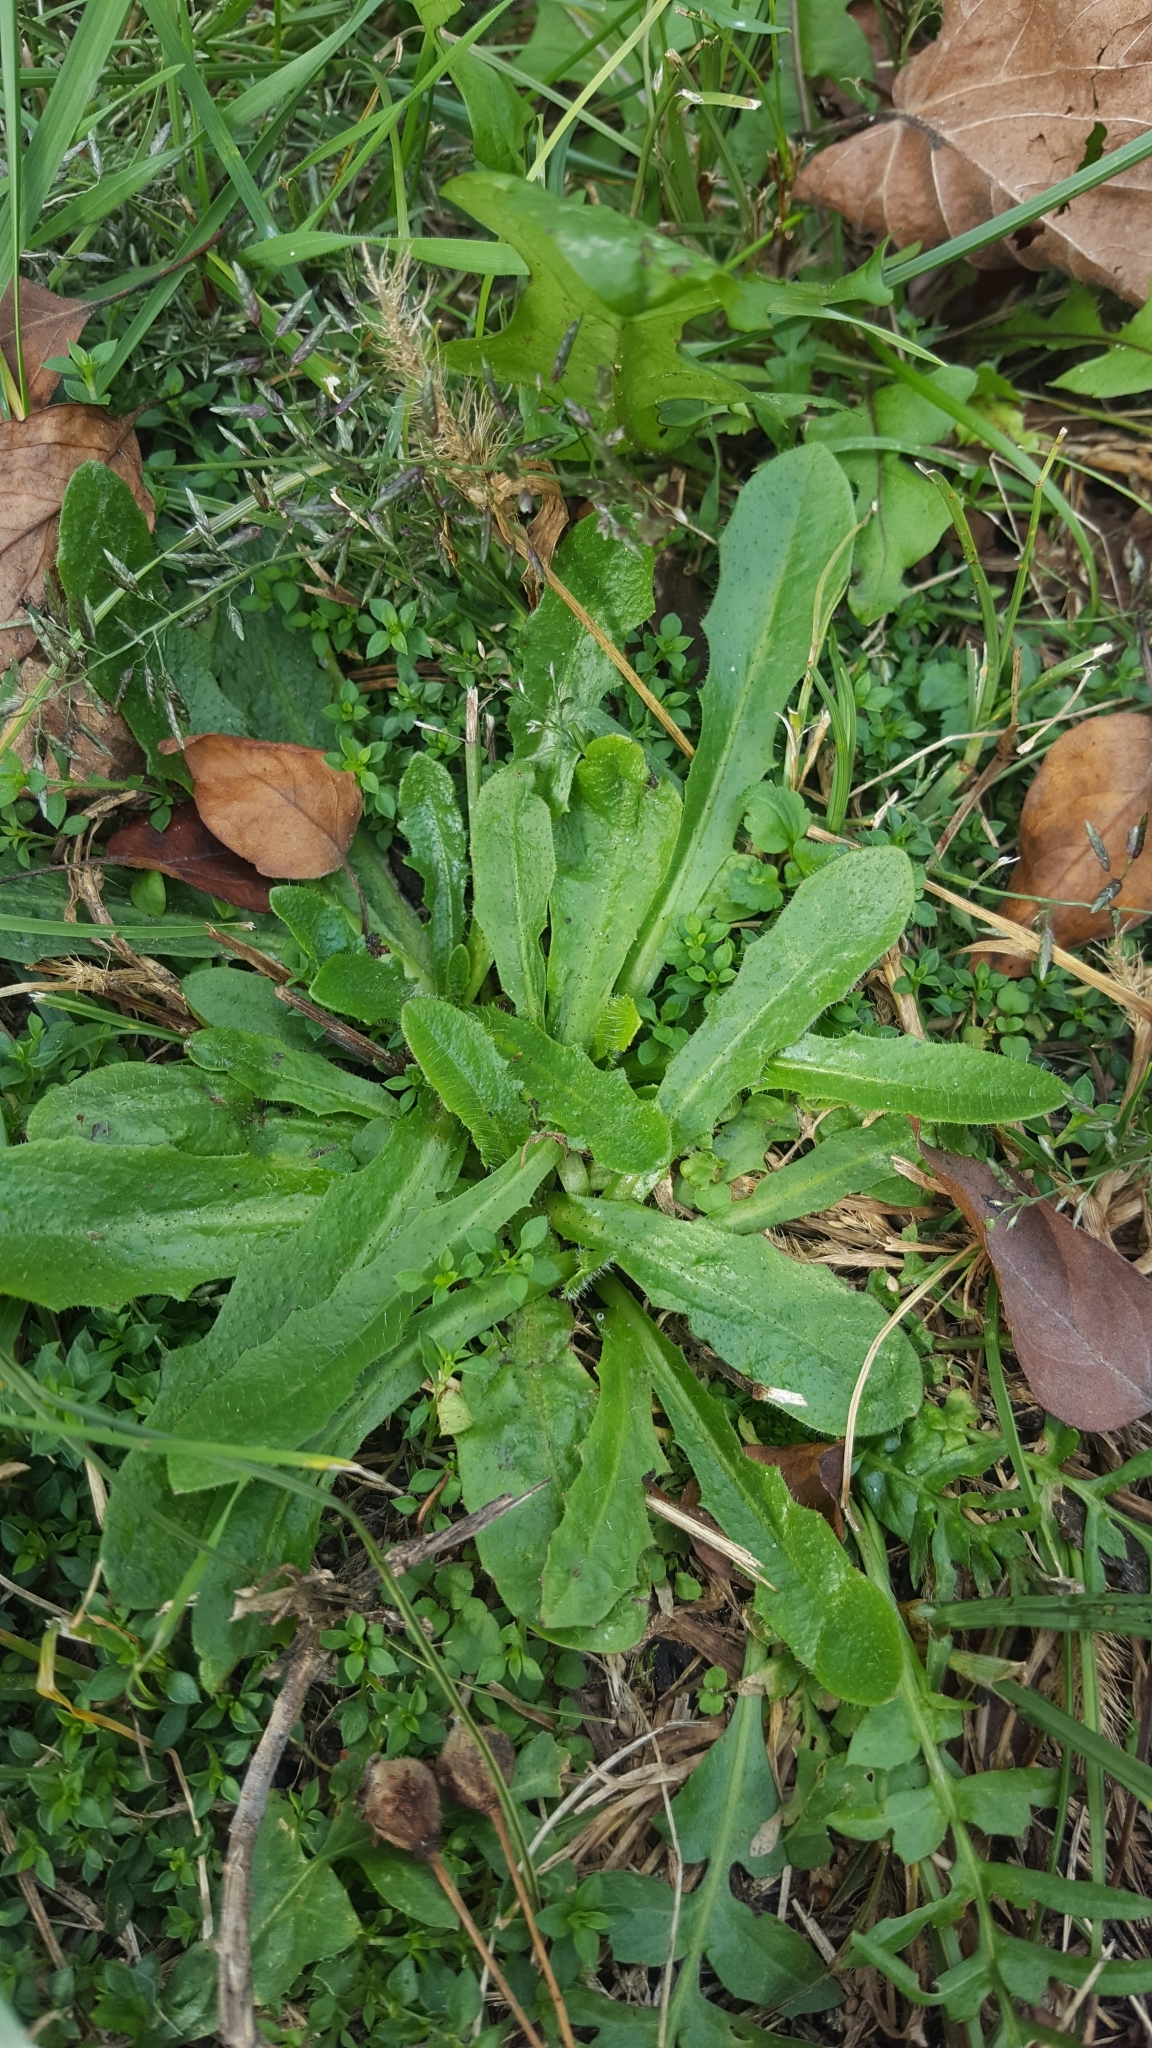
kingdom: Plantae
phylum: Tracheophyta
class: Magnoliopsida
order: Asterales
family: Asteraceae
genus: Hypochaeris
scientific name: Hypochaeris radicata
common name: Flatweed
